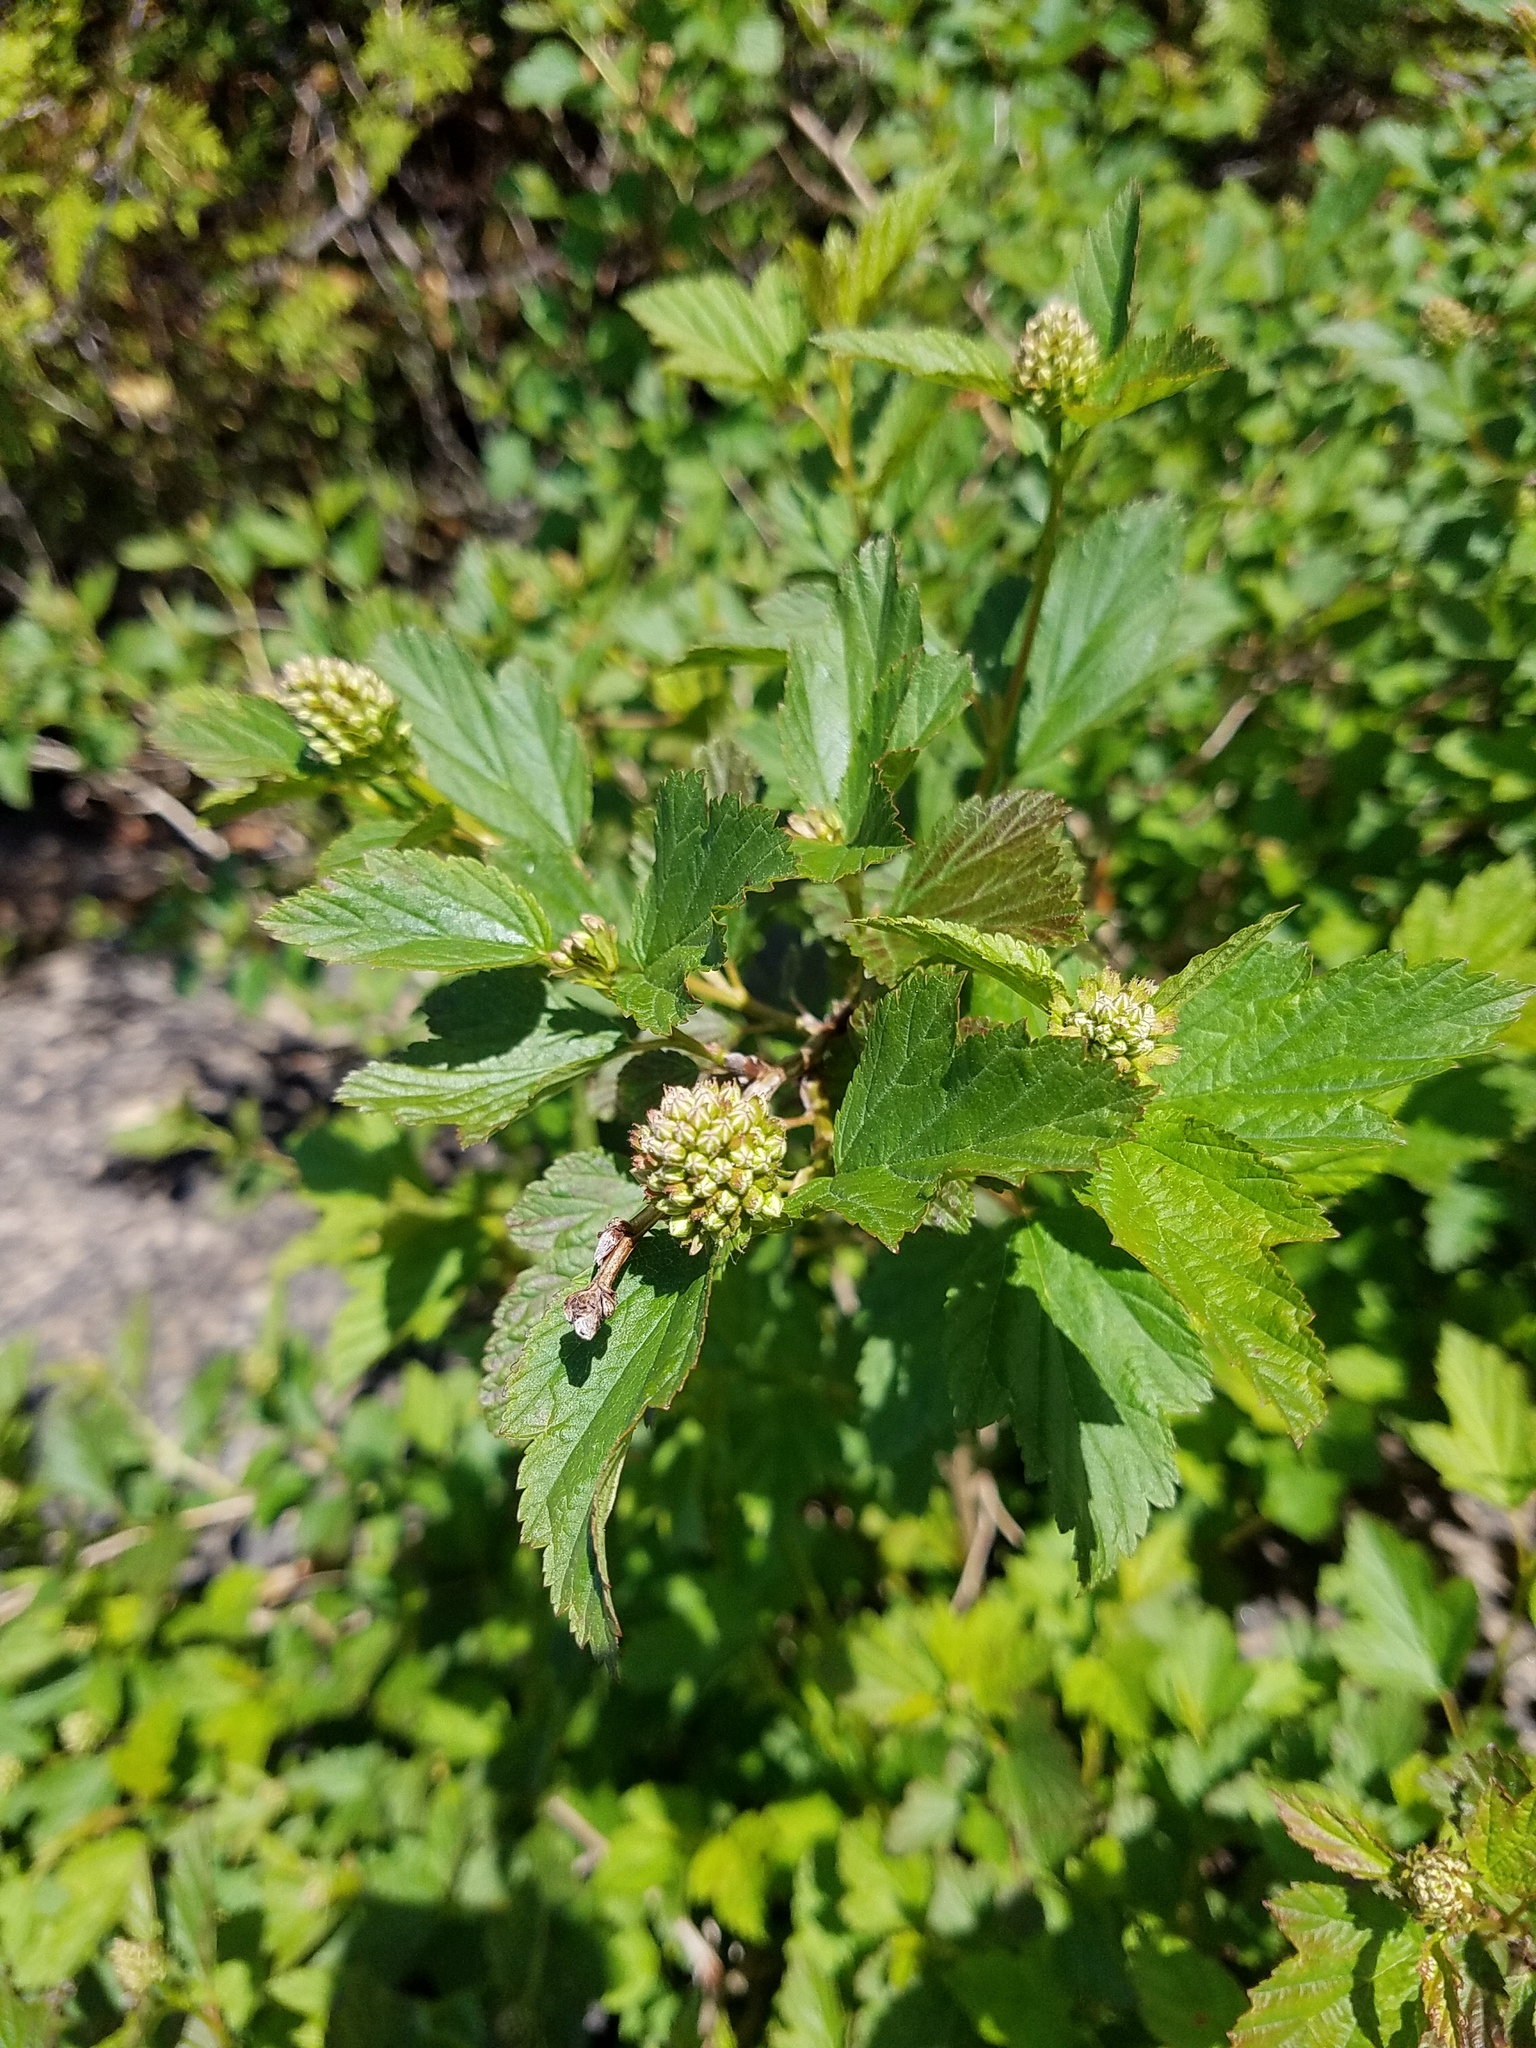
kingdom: Plantae
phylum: Tracheophyta
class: Magnoliopsida
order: Rosales
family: Rosaceae
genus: Physocarpus
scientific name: Physocarpus opulifolius
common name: Ninebark
